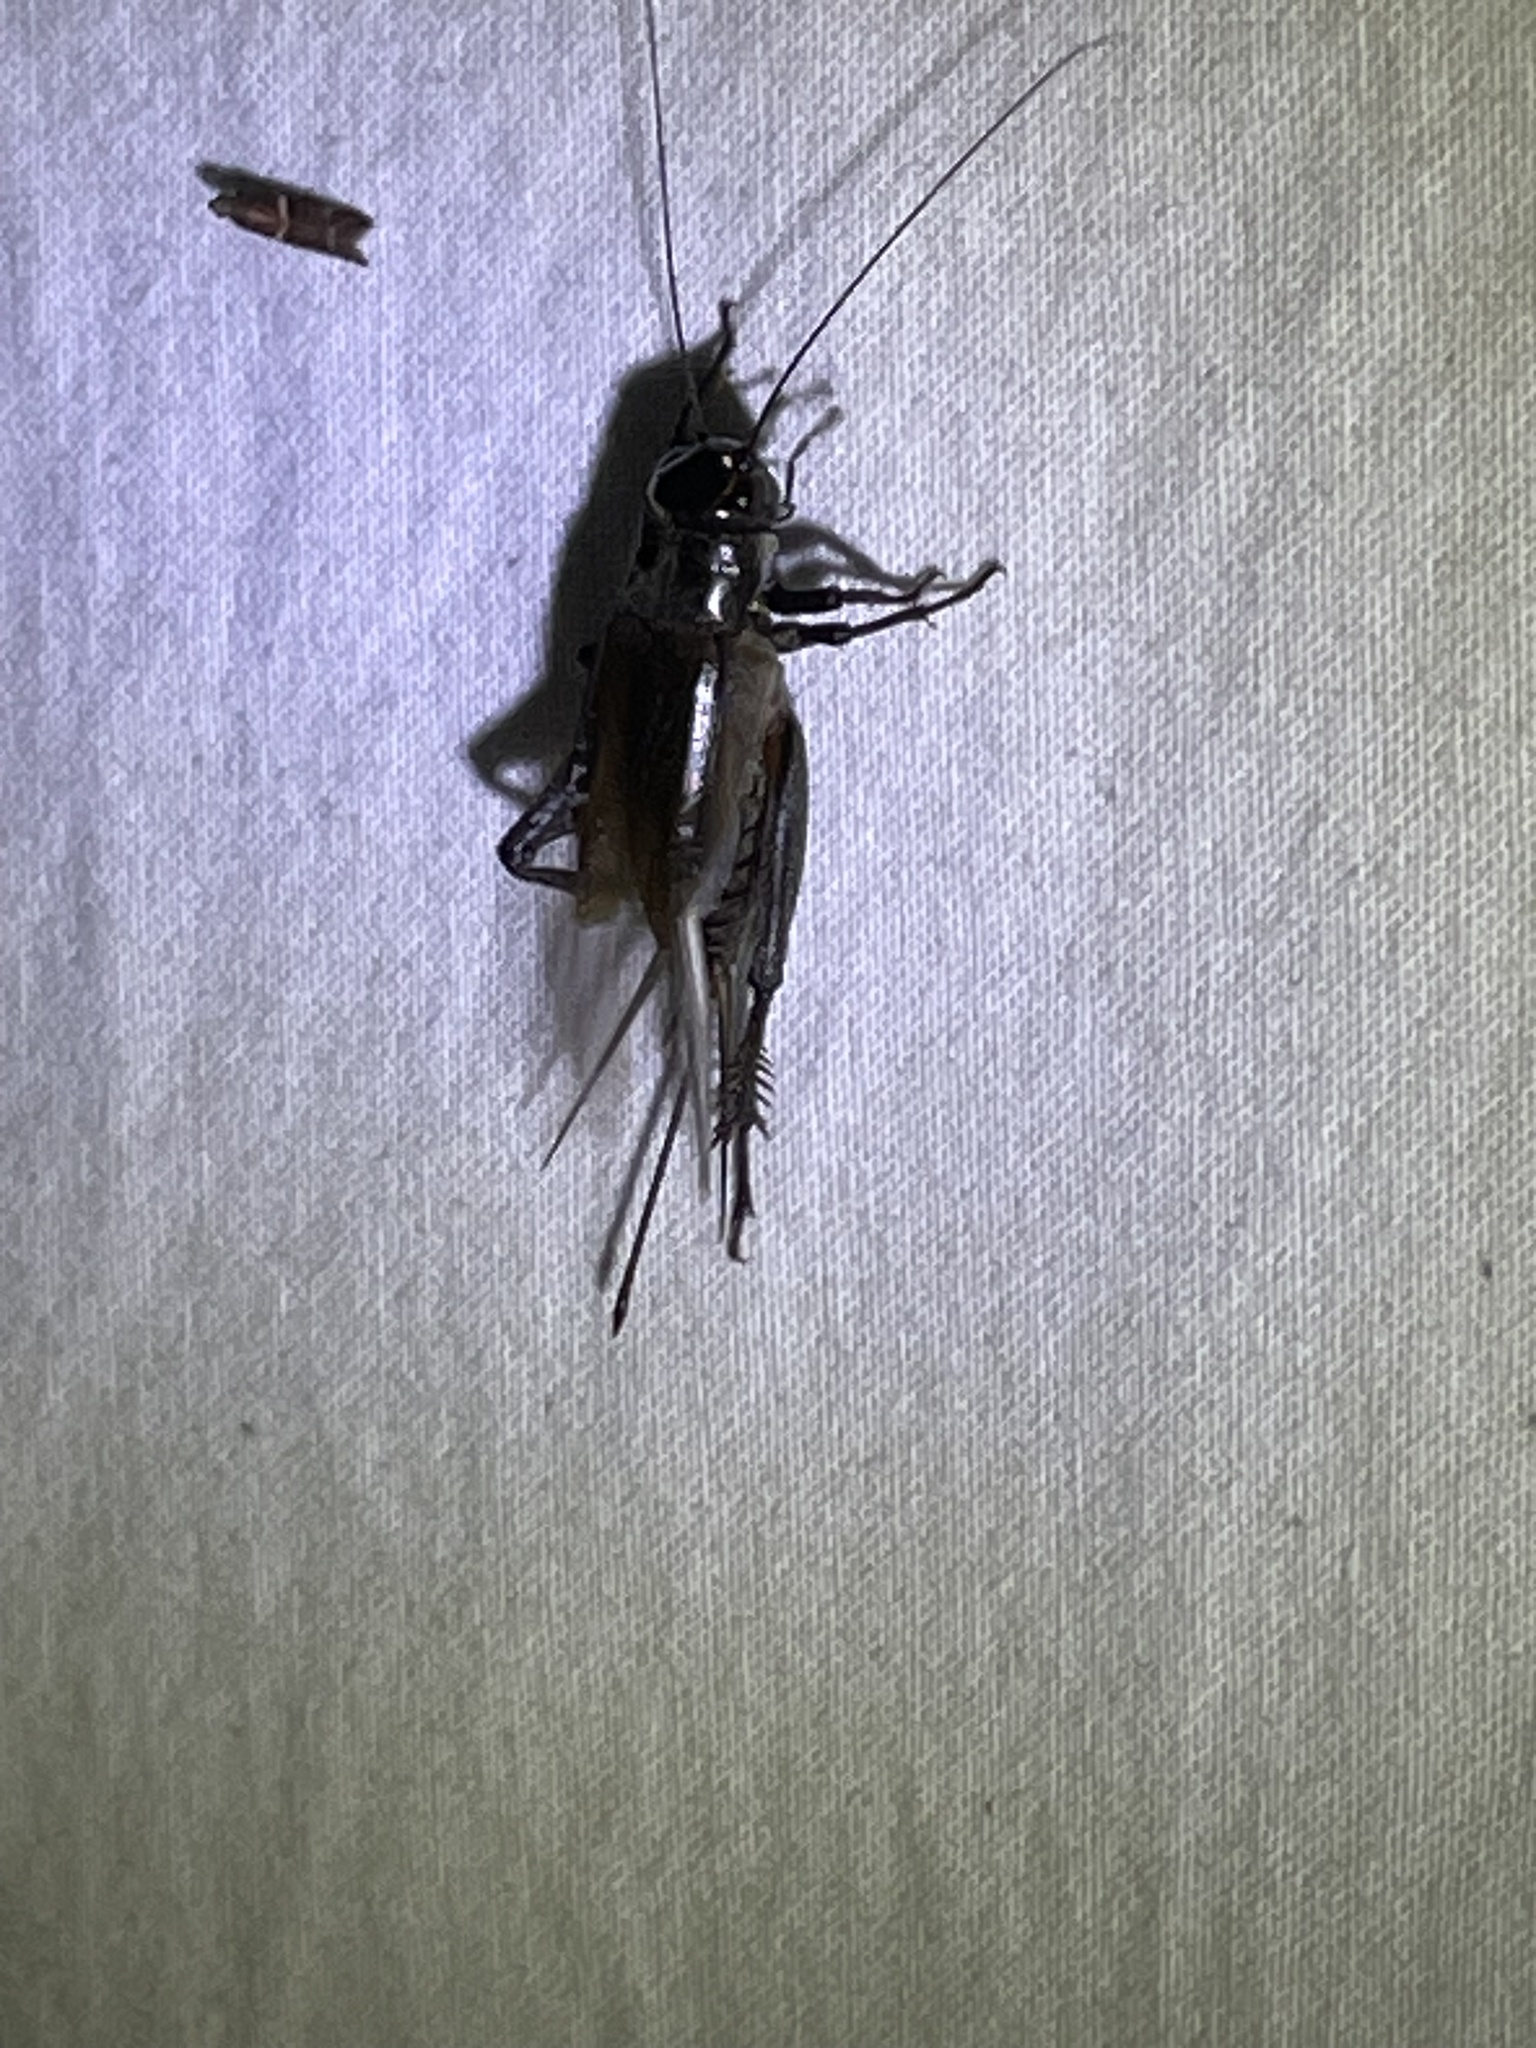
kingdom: Animalia
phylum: Arthropoda
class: Insecta
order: Orthoptera
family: Gryllidae
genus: Teleogryllus
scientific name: Teleogryllus commodus
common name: Black field cricket
